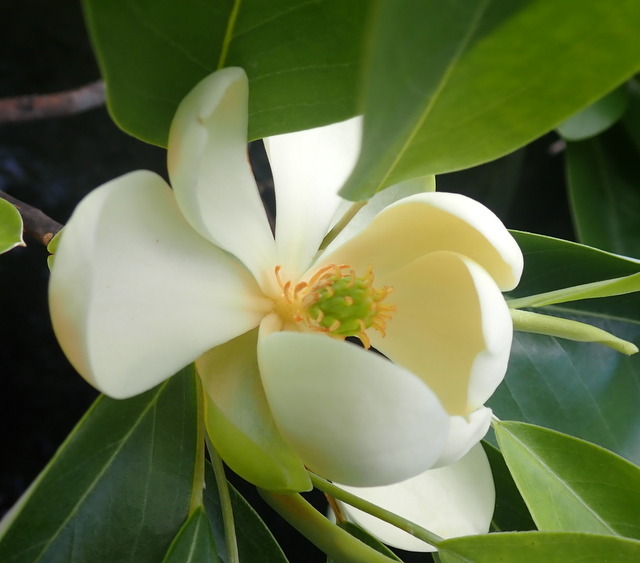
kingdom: Plantae
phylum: Tracheophyta
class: Magnoliopsida
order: Magnoliales
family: Magnoliaceae
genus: Magnolia
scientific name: Magnolia virginiana
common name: Swamp bay
